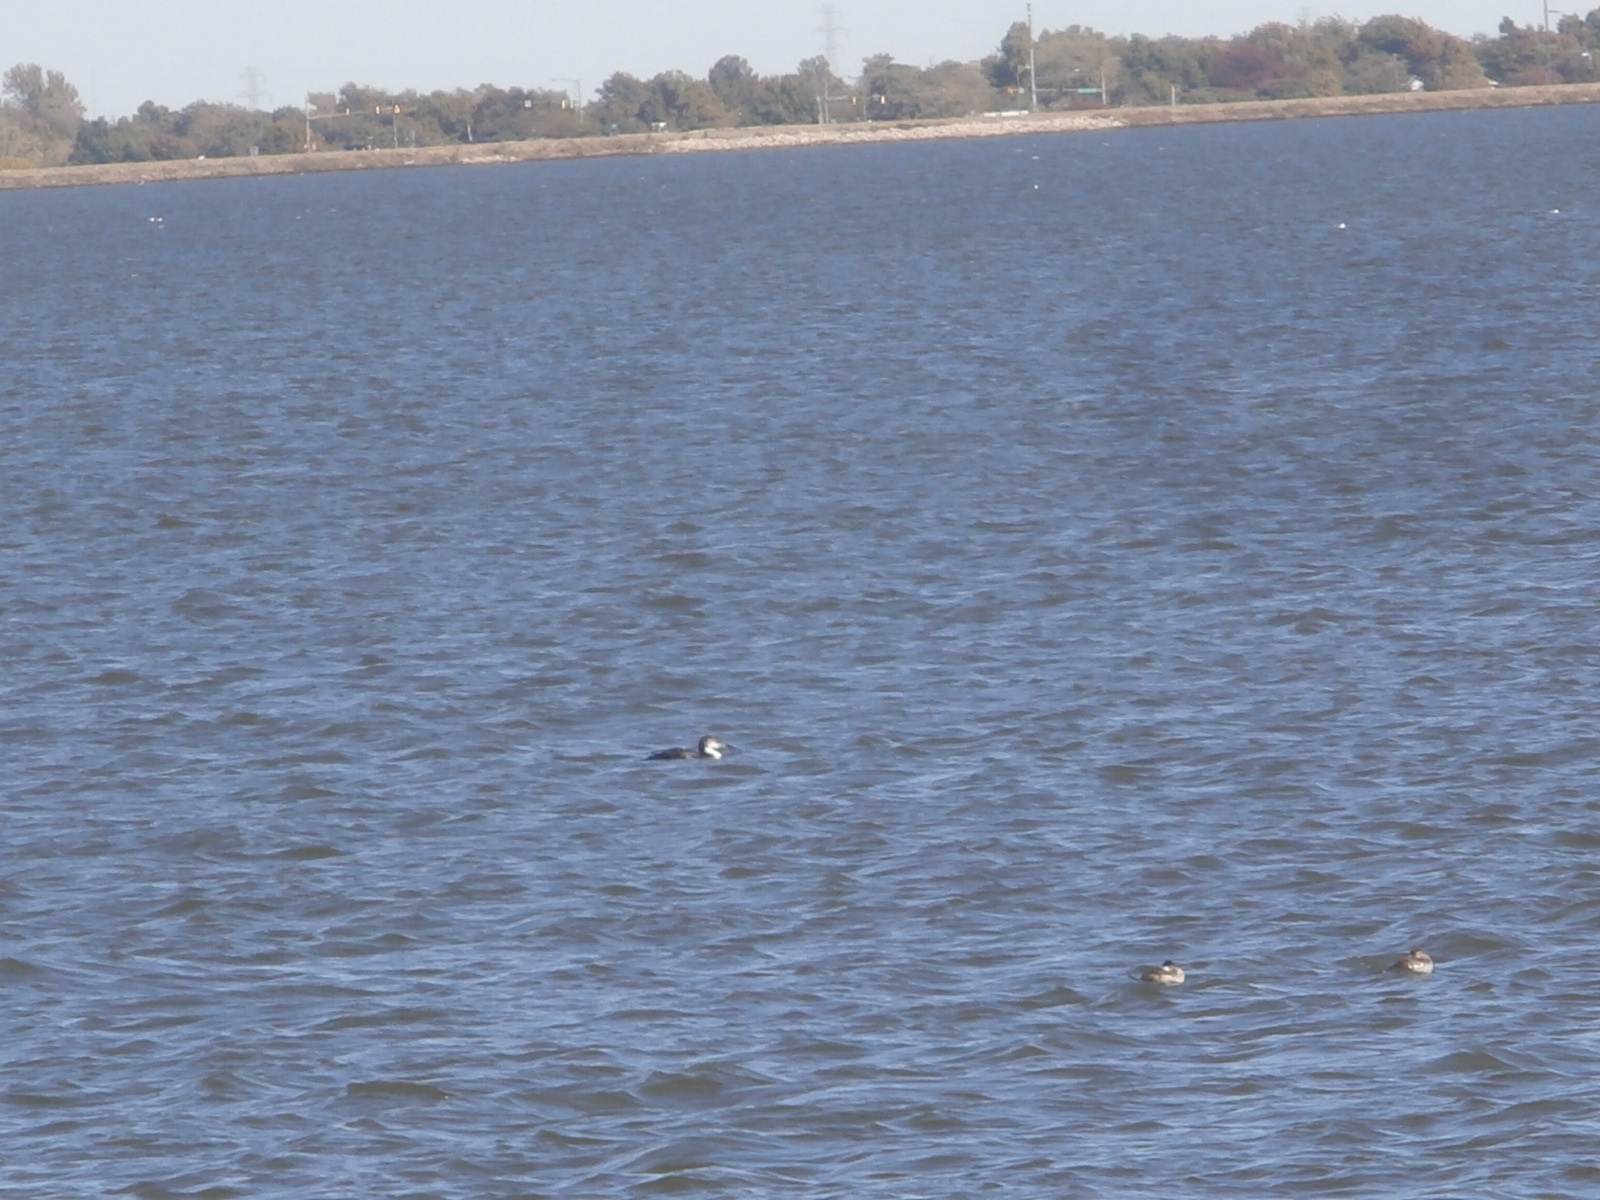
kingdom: Animalia
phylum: Chordata
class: Aves
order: Gaviiformes
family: Gaviidae
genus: Gavia
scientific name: Gavia immer
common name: Common loon
